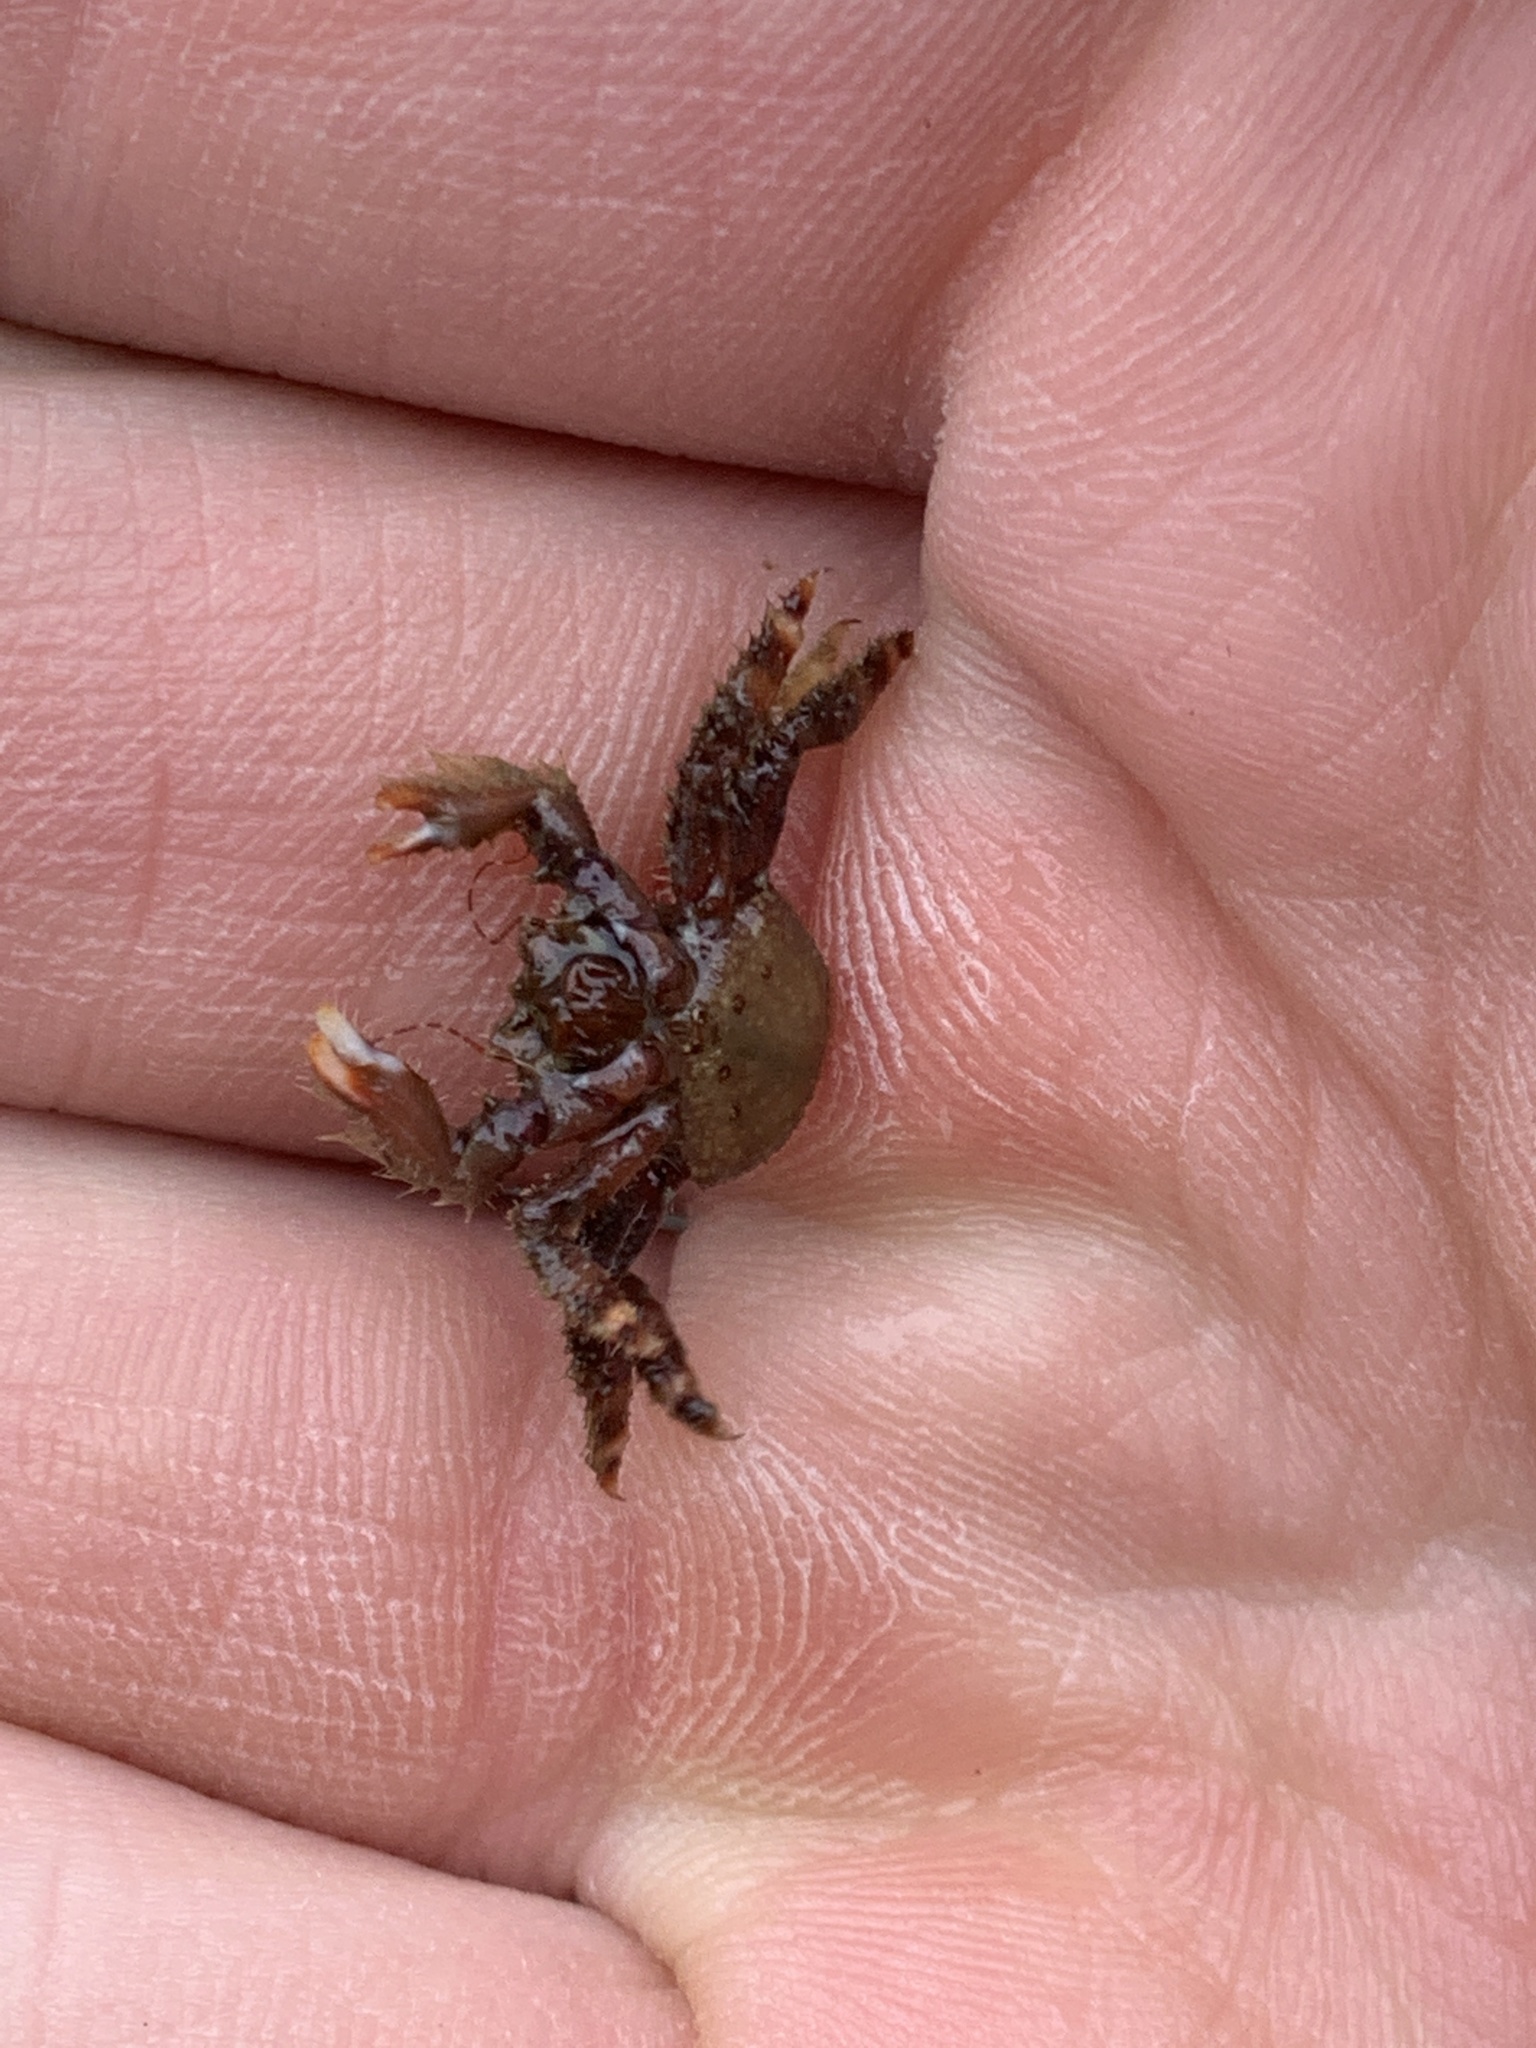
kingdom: Animalia
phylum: Arthropoda
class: Malacostraca
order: Decapoda
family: Hapalogastridae
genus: Hapalogaster
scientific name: Hapalogaster mertensii
